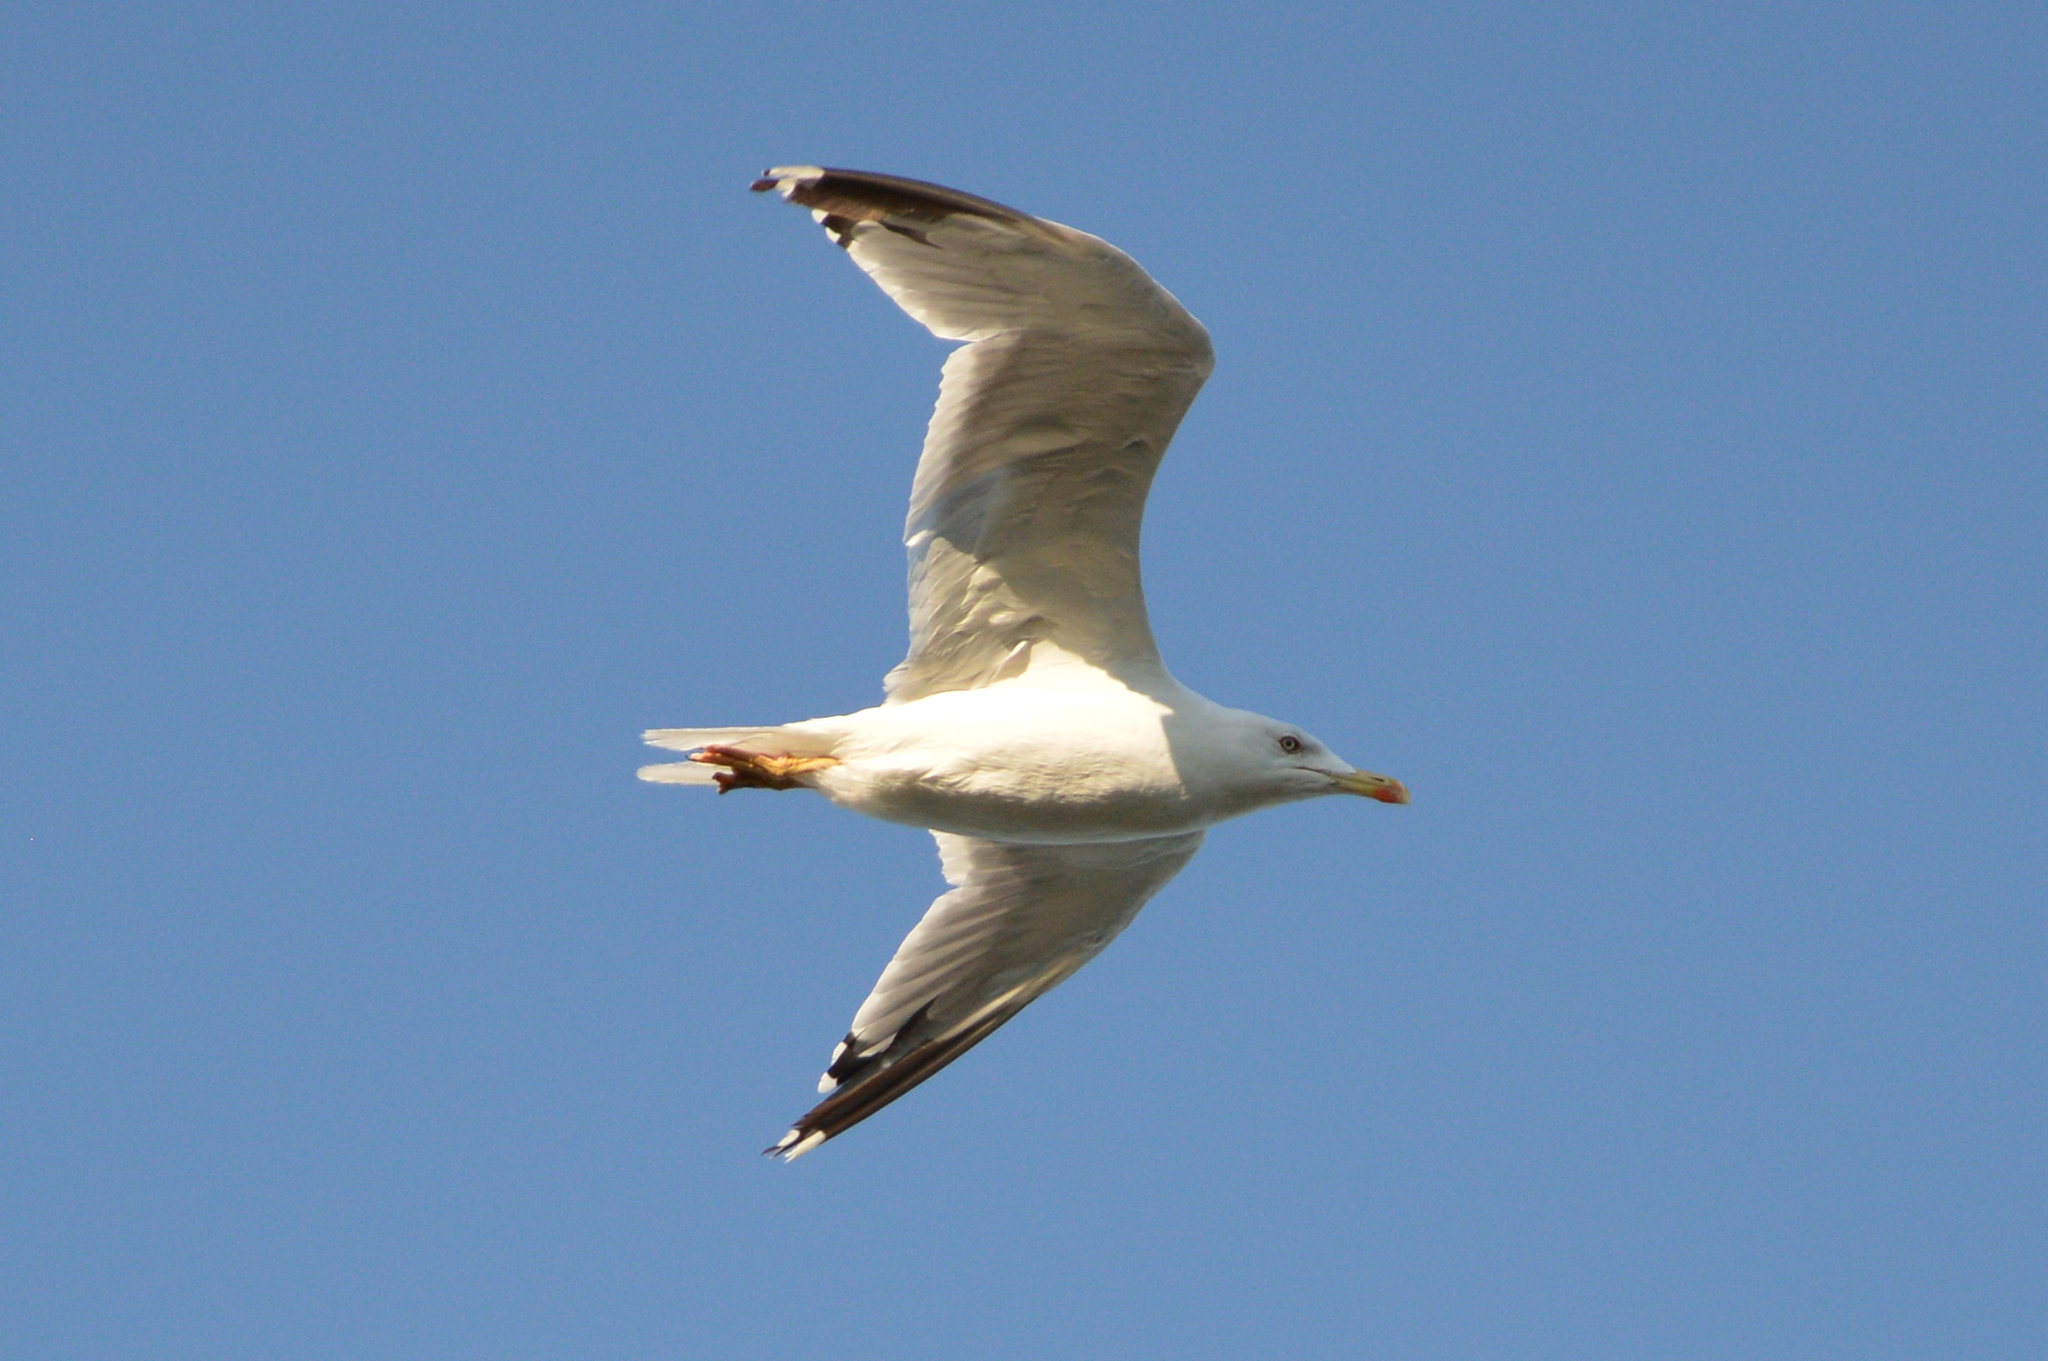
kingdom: Animalia
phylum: Chordata
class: Aves
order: Charadriiformes
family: Laridae
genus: Larus
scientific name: Larus michahellis
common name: Yellow-legged gull
